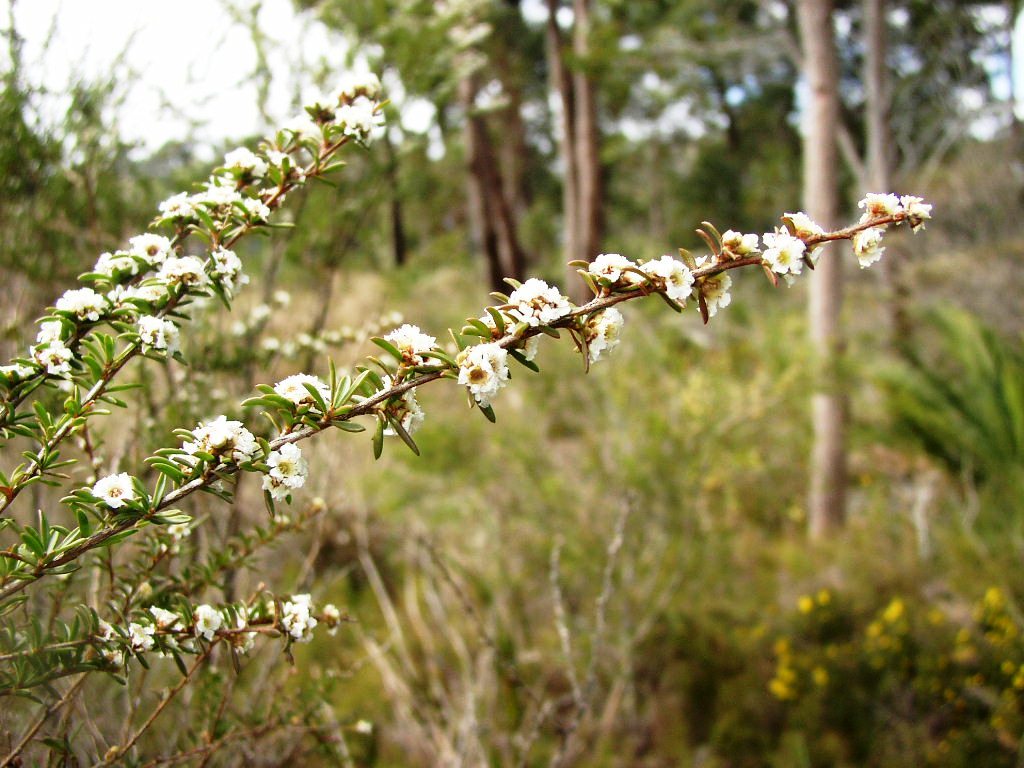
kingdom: Plantae
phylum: Tracheophyta
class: Magnoliopsida
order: Myrtales
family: Myrtaceae
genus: Taxandria
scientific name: Taxandria parviceps
